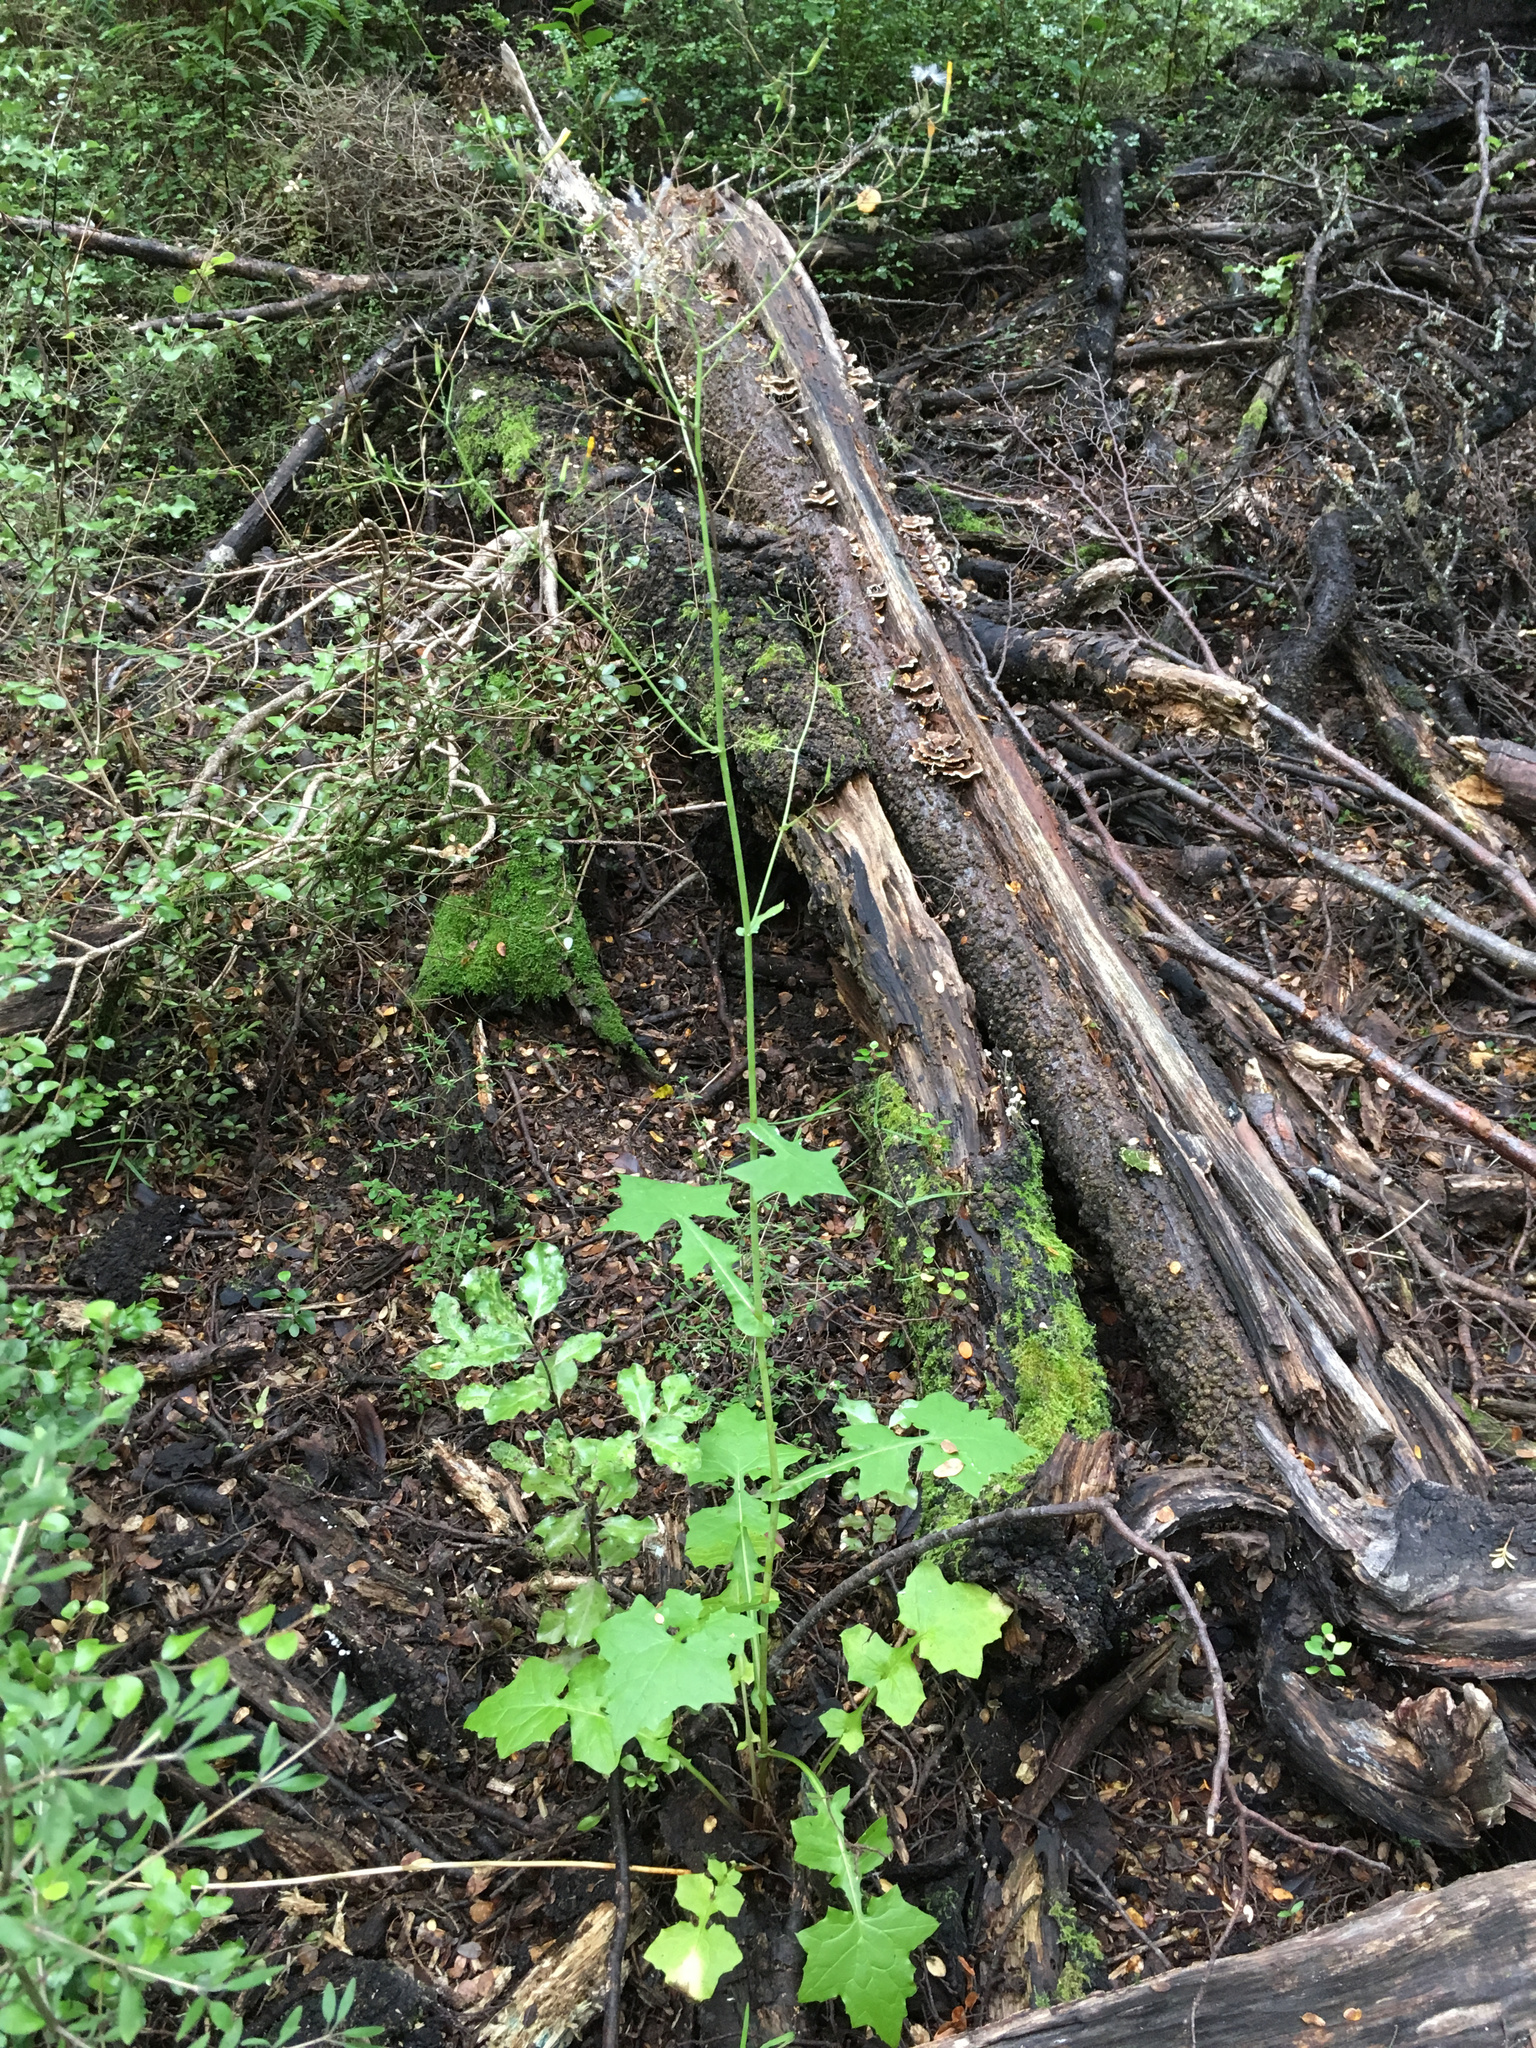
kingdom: Plantae
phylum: Tracheophyta
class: Magnoliopsida
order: Asterales
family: Asteraceae
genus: Mycelis
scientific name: Mycelis muralis
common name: Wall lettuce
